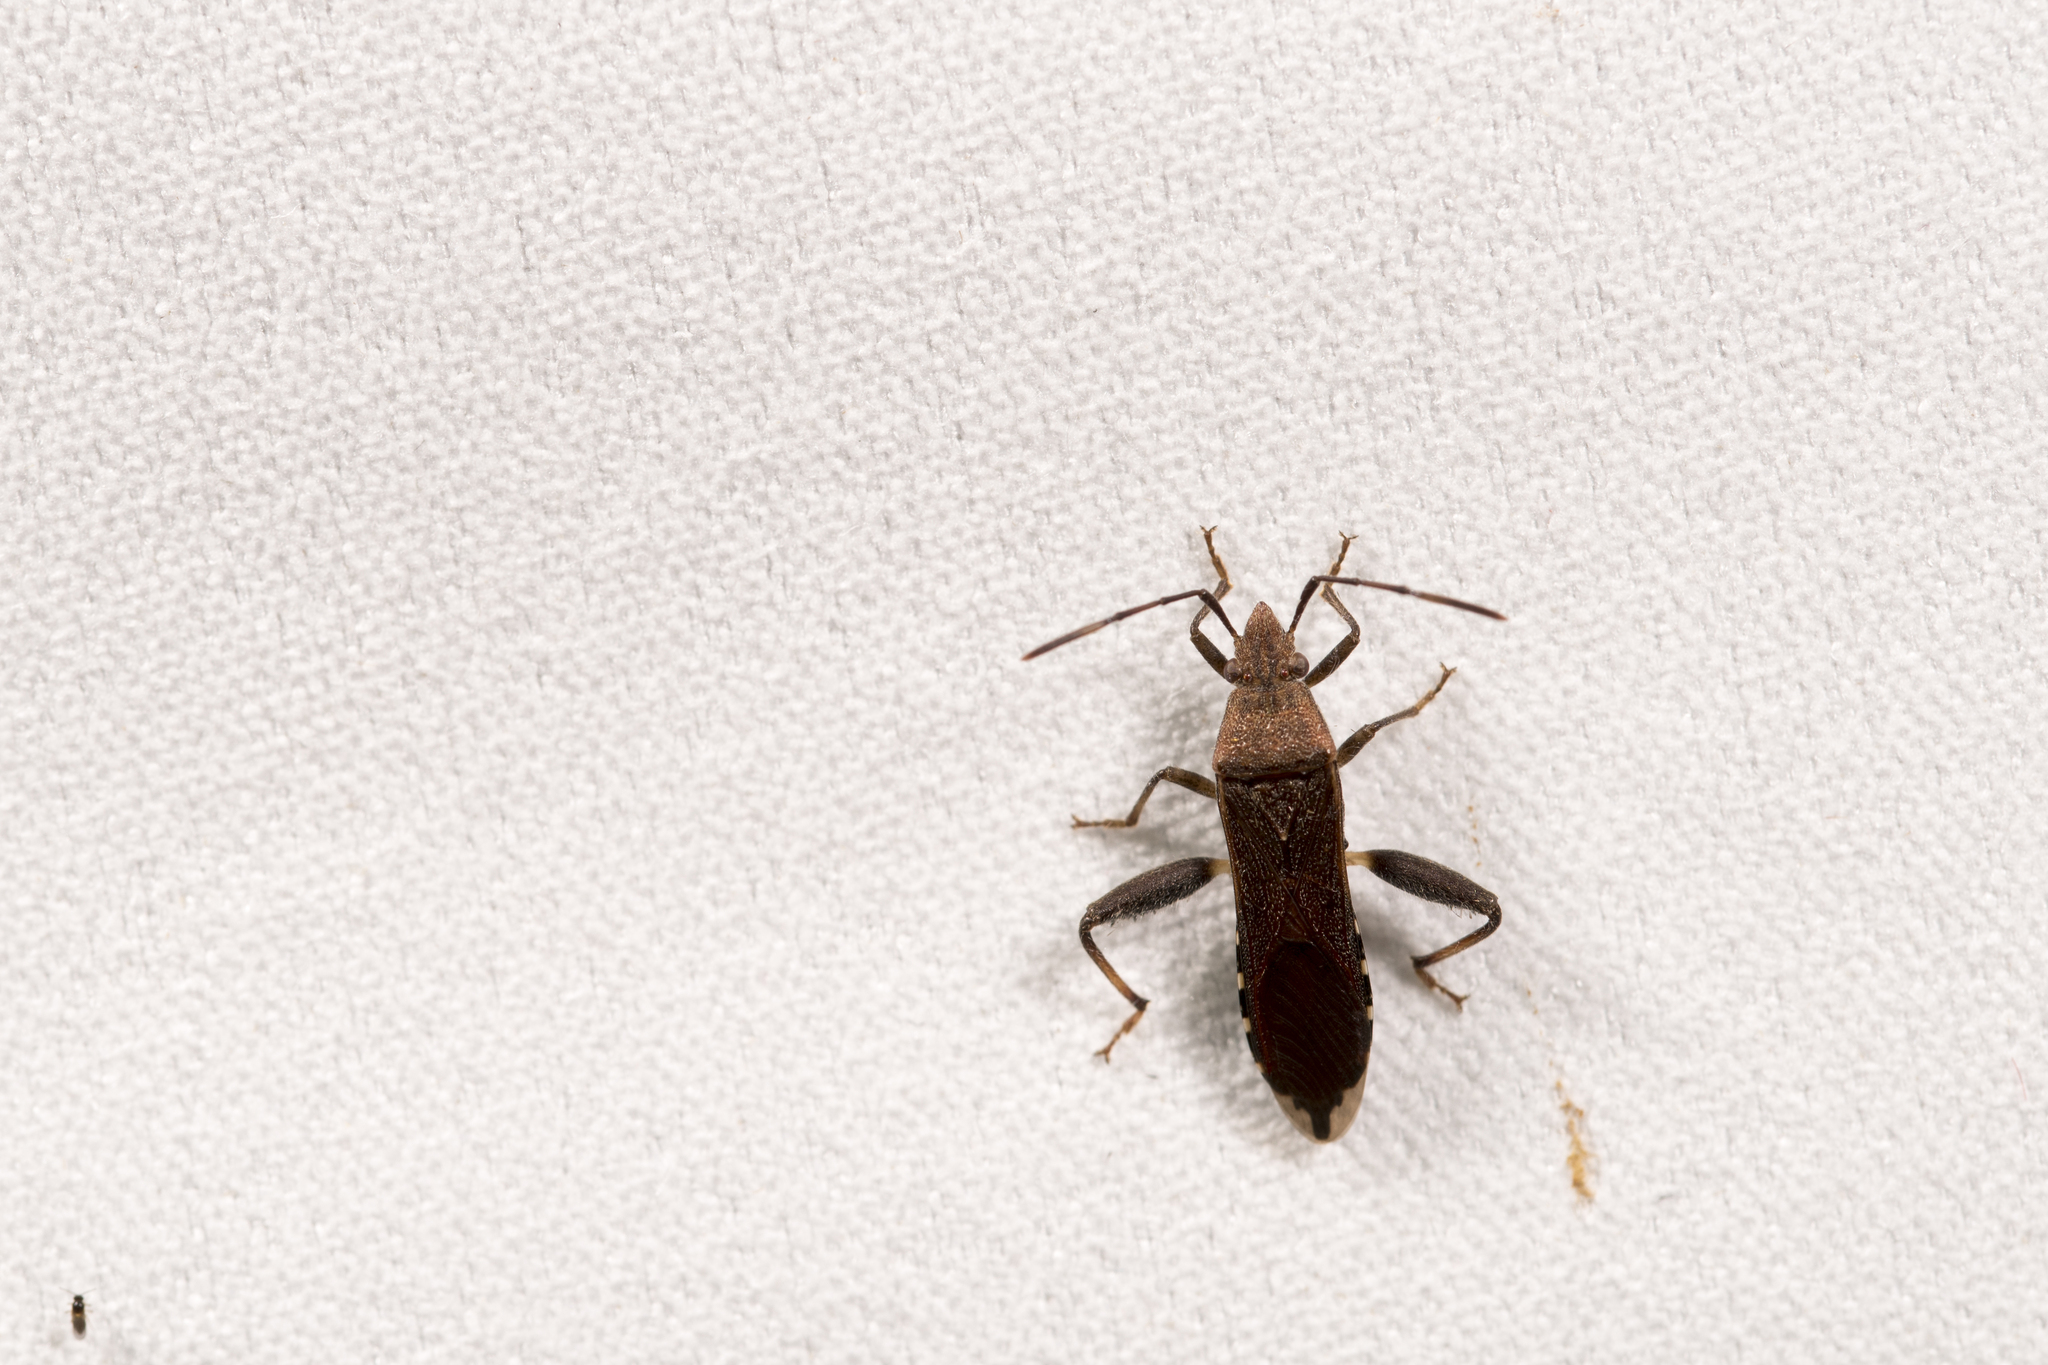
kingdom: Animalia
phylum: Arthropoda
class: Insecta
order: Hemiptera
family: Alydidae
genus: Daclera
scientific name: Daclera levana
